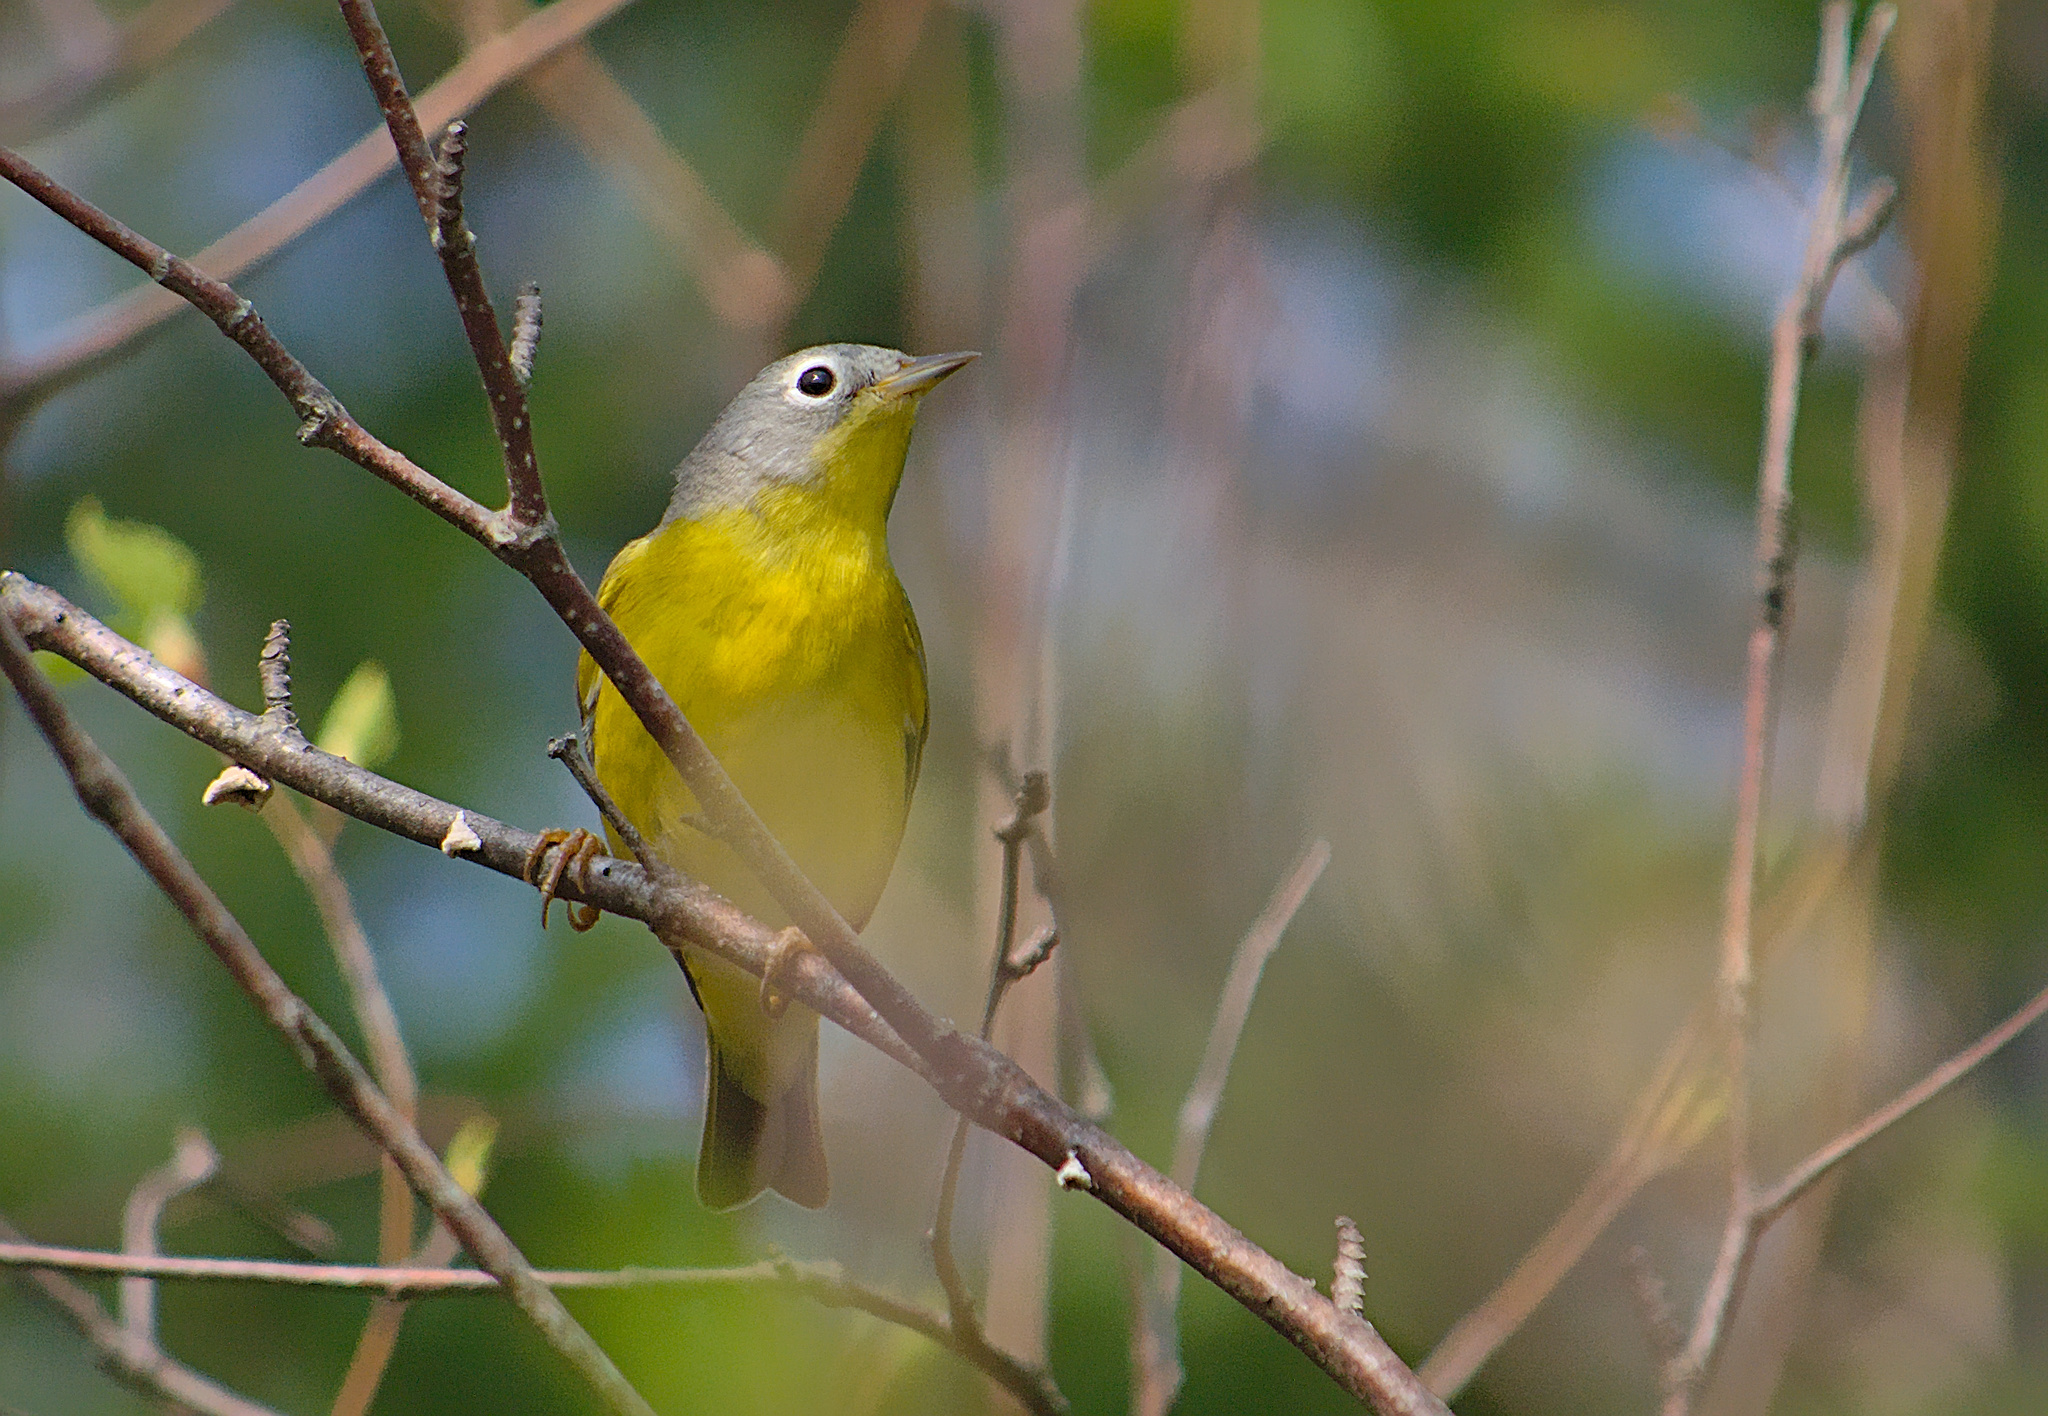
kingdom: Animalia
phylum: Chordata
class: Aves
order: Passeriformes
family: Parulidae
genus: Leiothlypis
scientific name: Leiothlypis ruficapilla
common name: Nashville warbler
